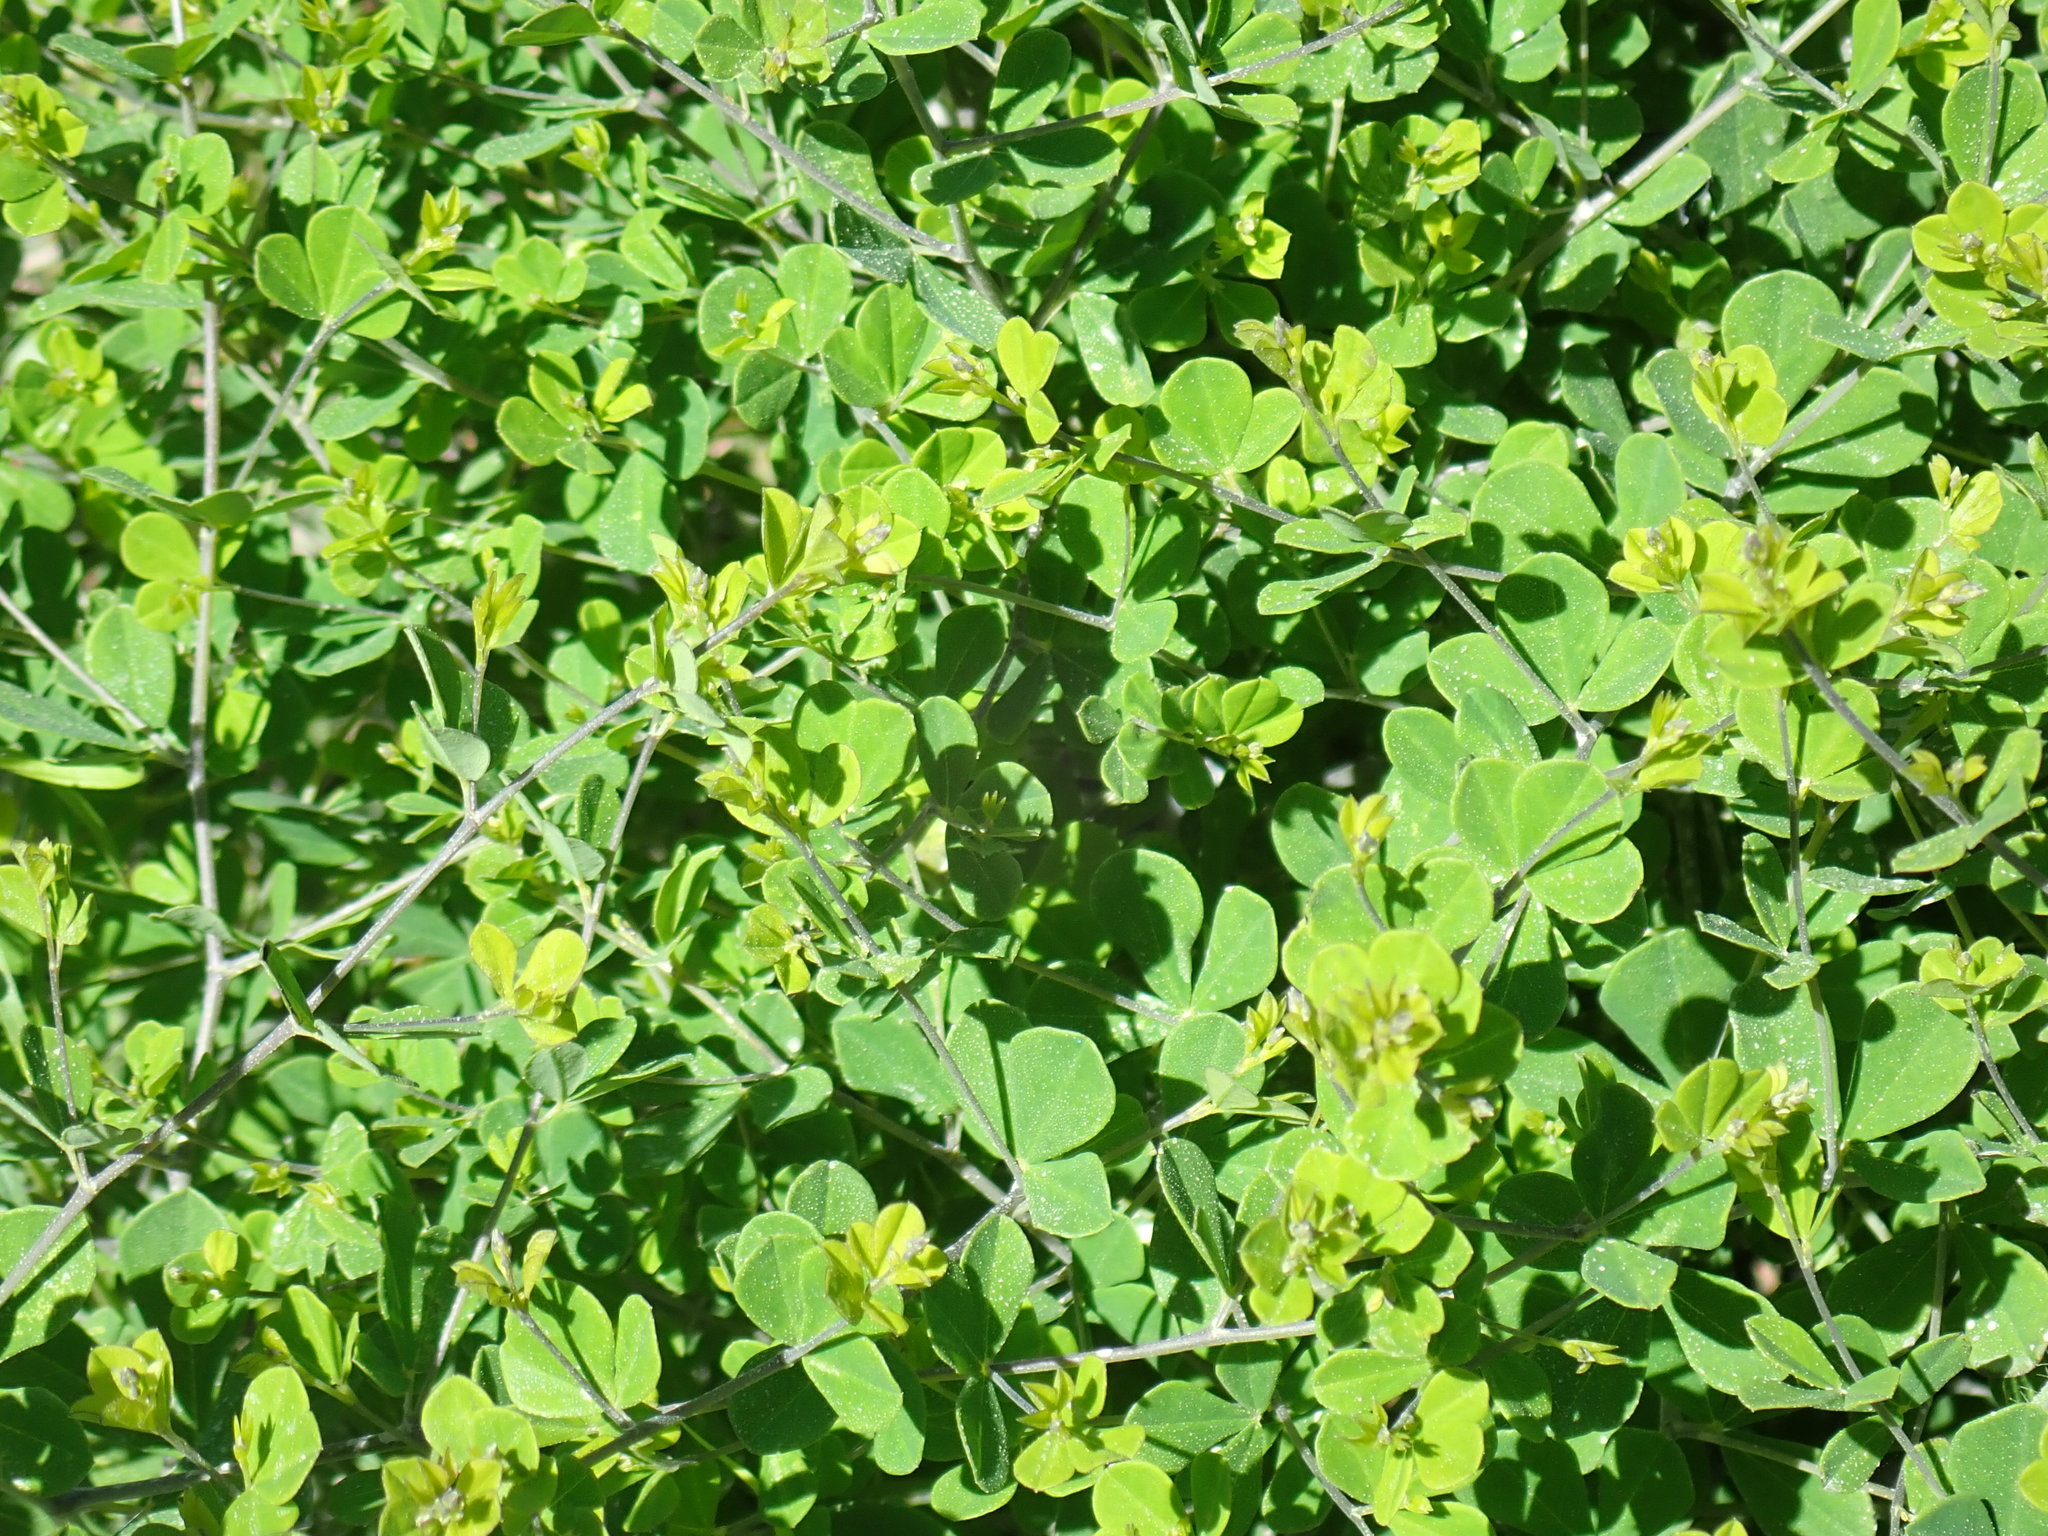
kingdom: Plantae
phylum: Tracheophyta
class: Magnoliopsida
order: Fabales
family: Fabaceae
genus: Baptisia
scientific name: Baptisia tinctoria
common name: Wild indigo
